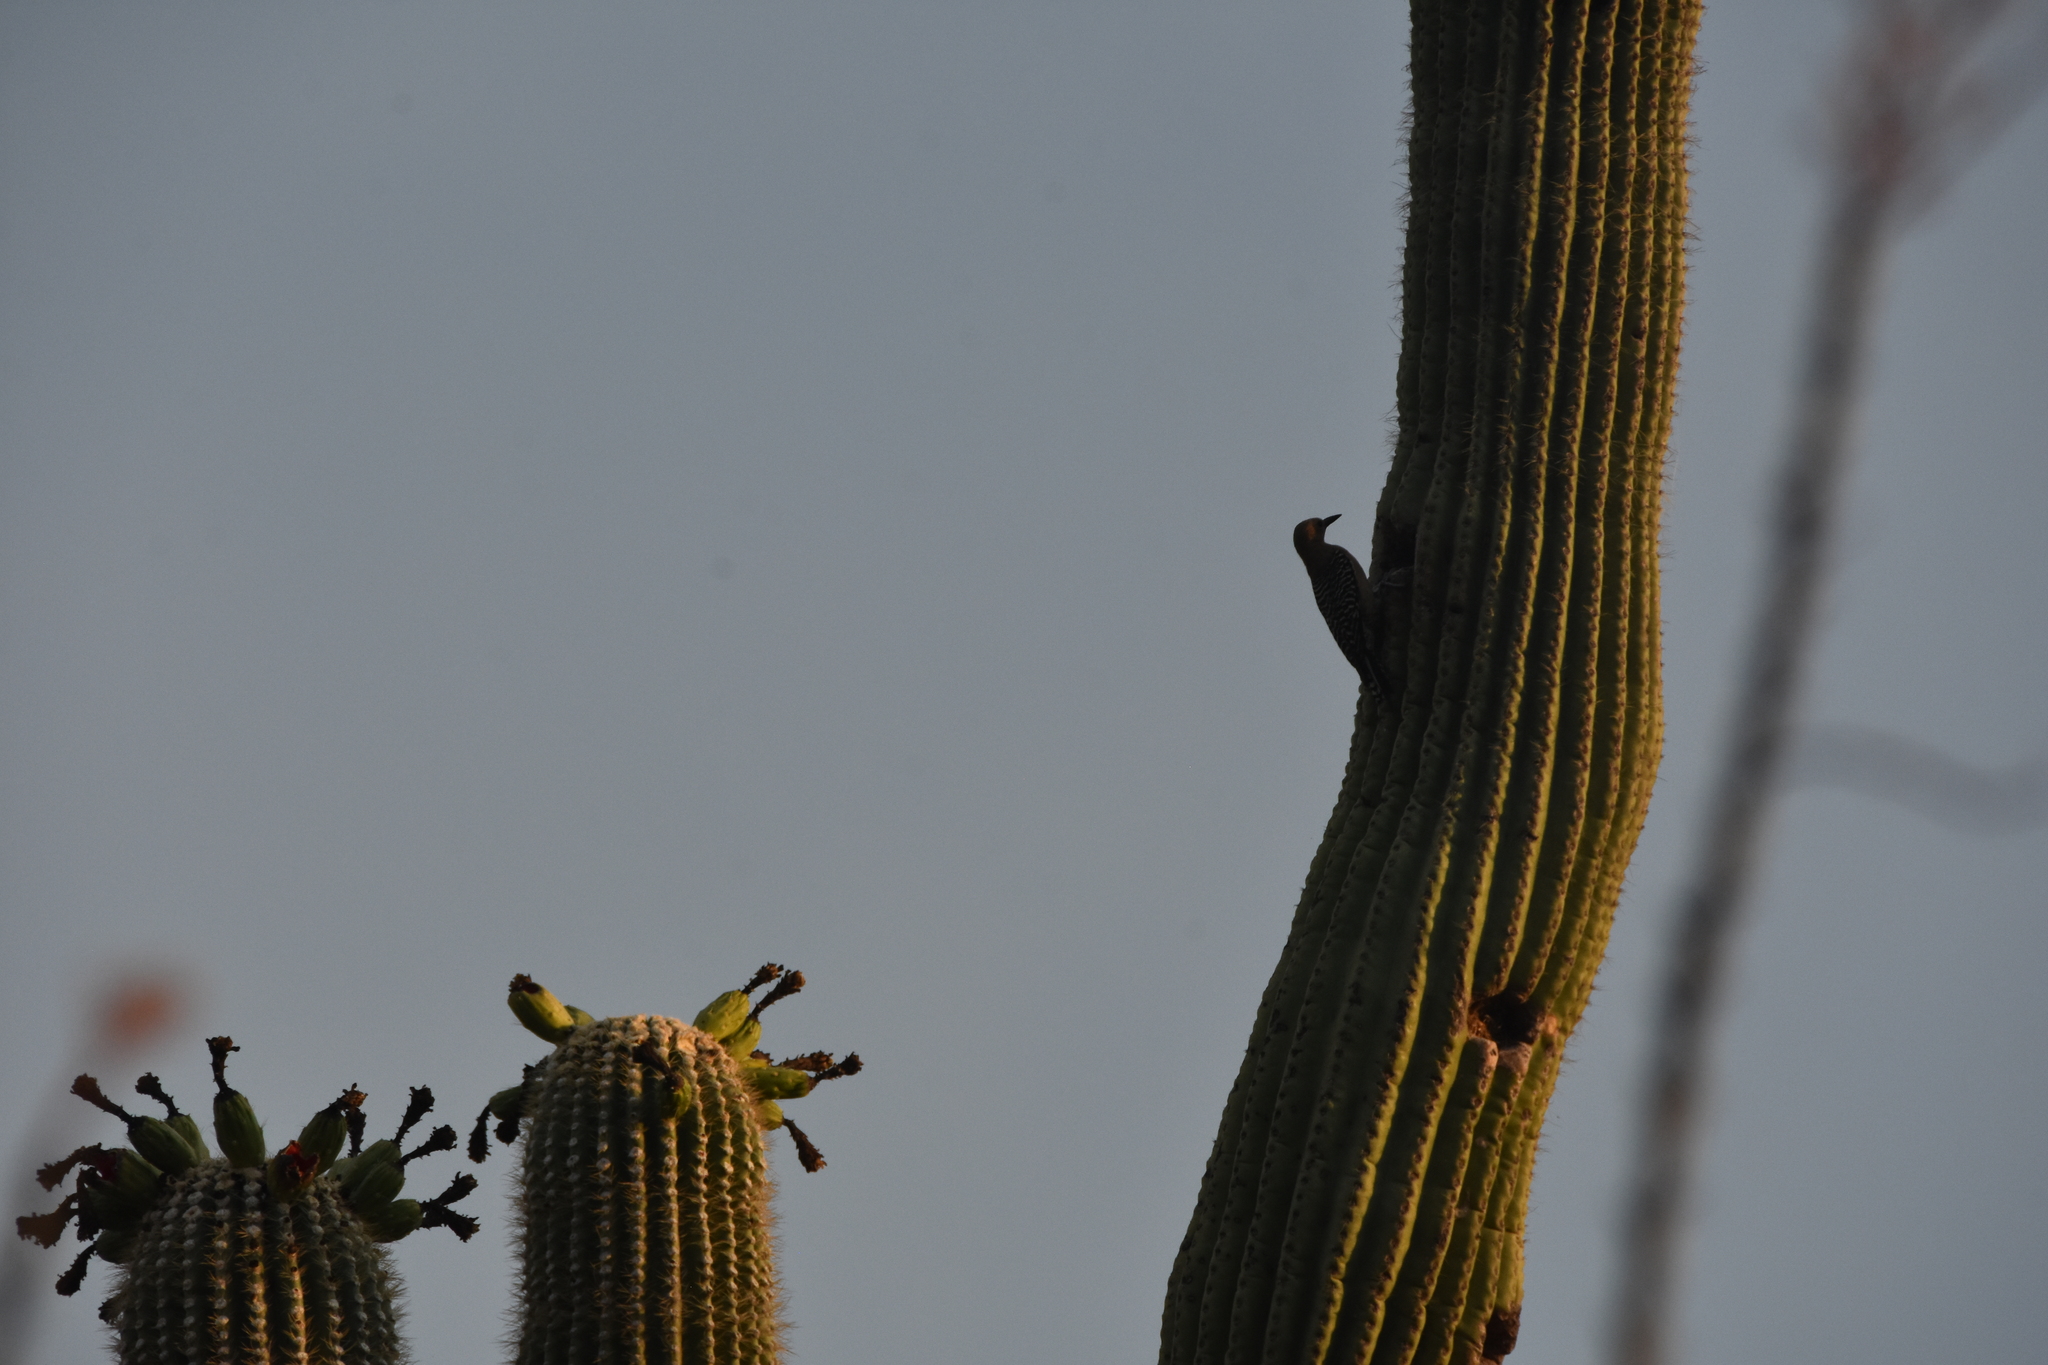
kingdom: Animalia
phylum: Chordata
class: Aves
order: Piciformes
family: Picidae
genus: Melanerpes
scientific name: Melanerpes uropygialis
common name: Gila woodpecker
